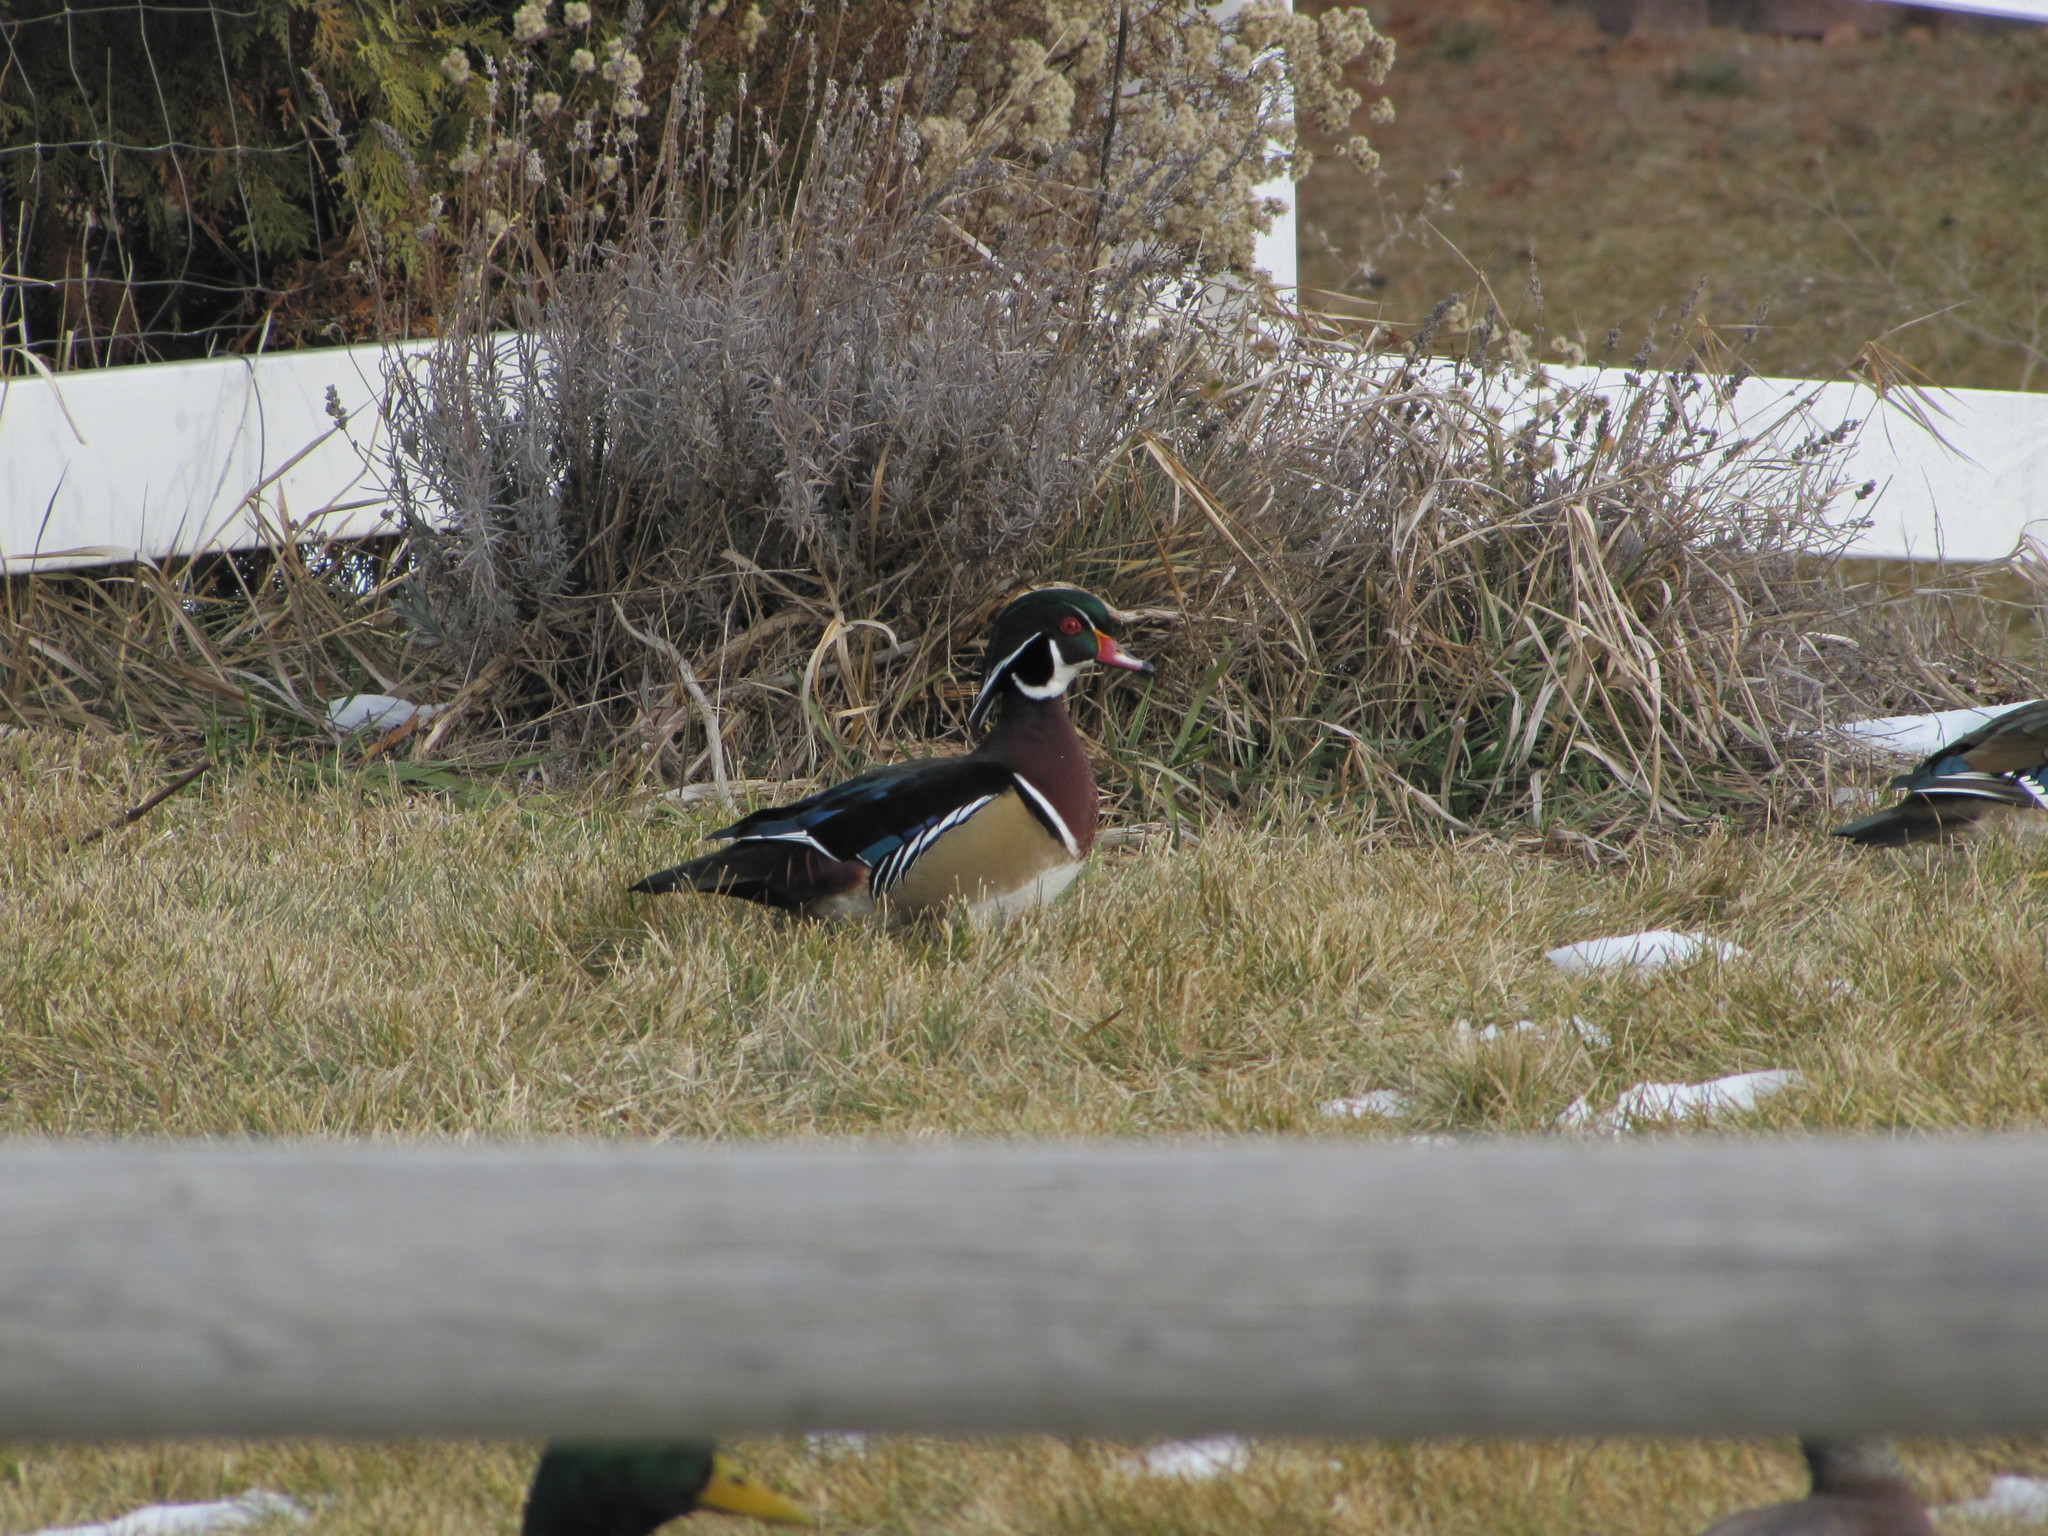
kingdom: Animalia
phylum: Chordata
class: Aves
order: Anseriformes
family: Anatidae
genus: Aix
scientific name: Aix sponsa
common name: Wood duck
